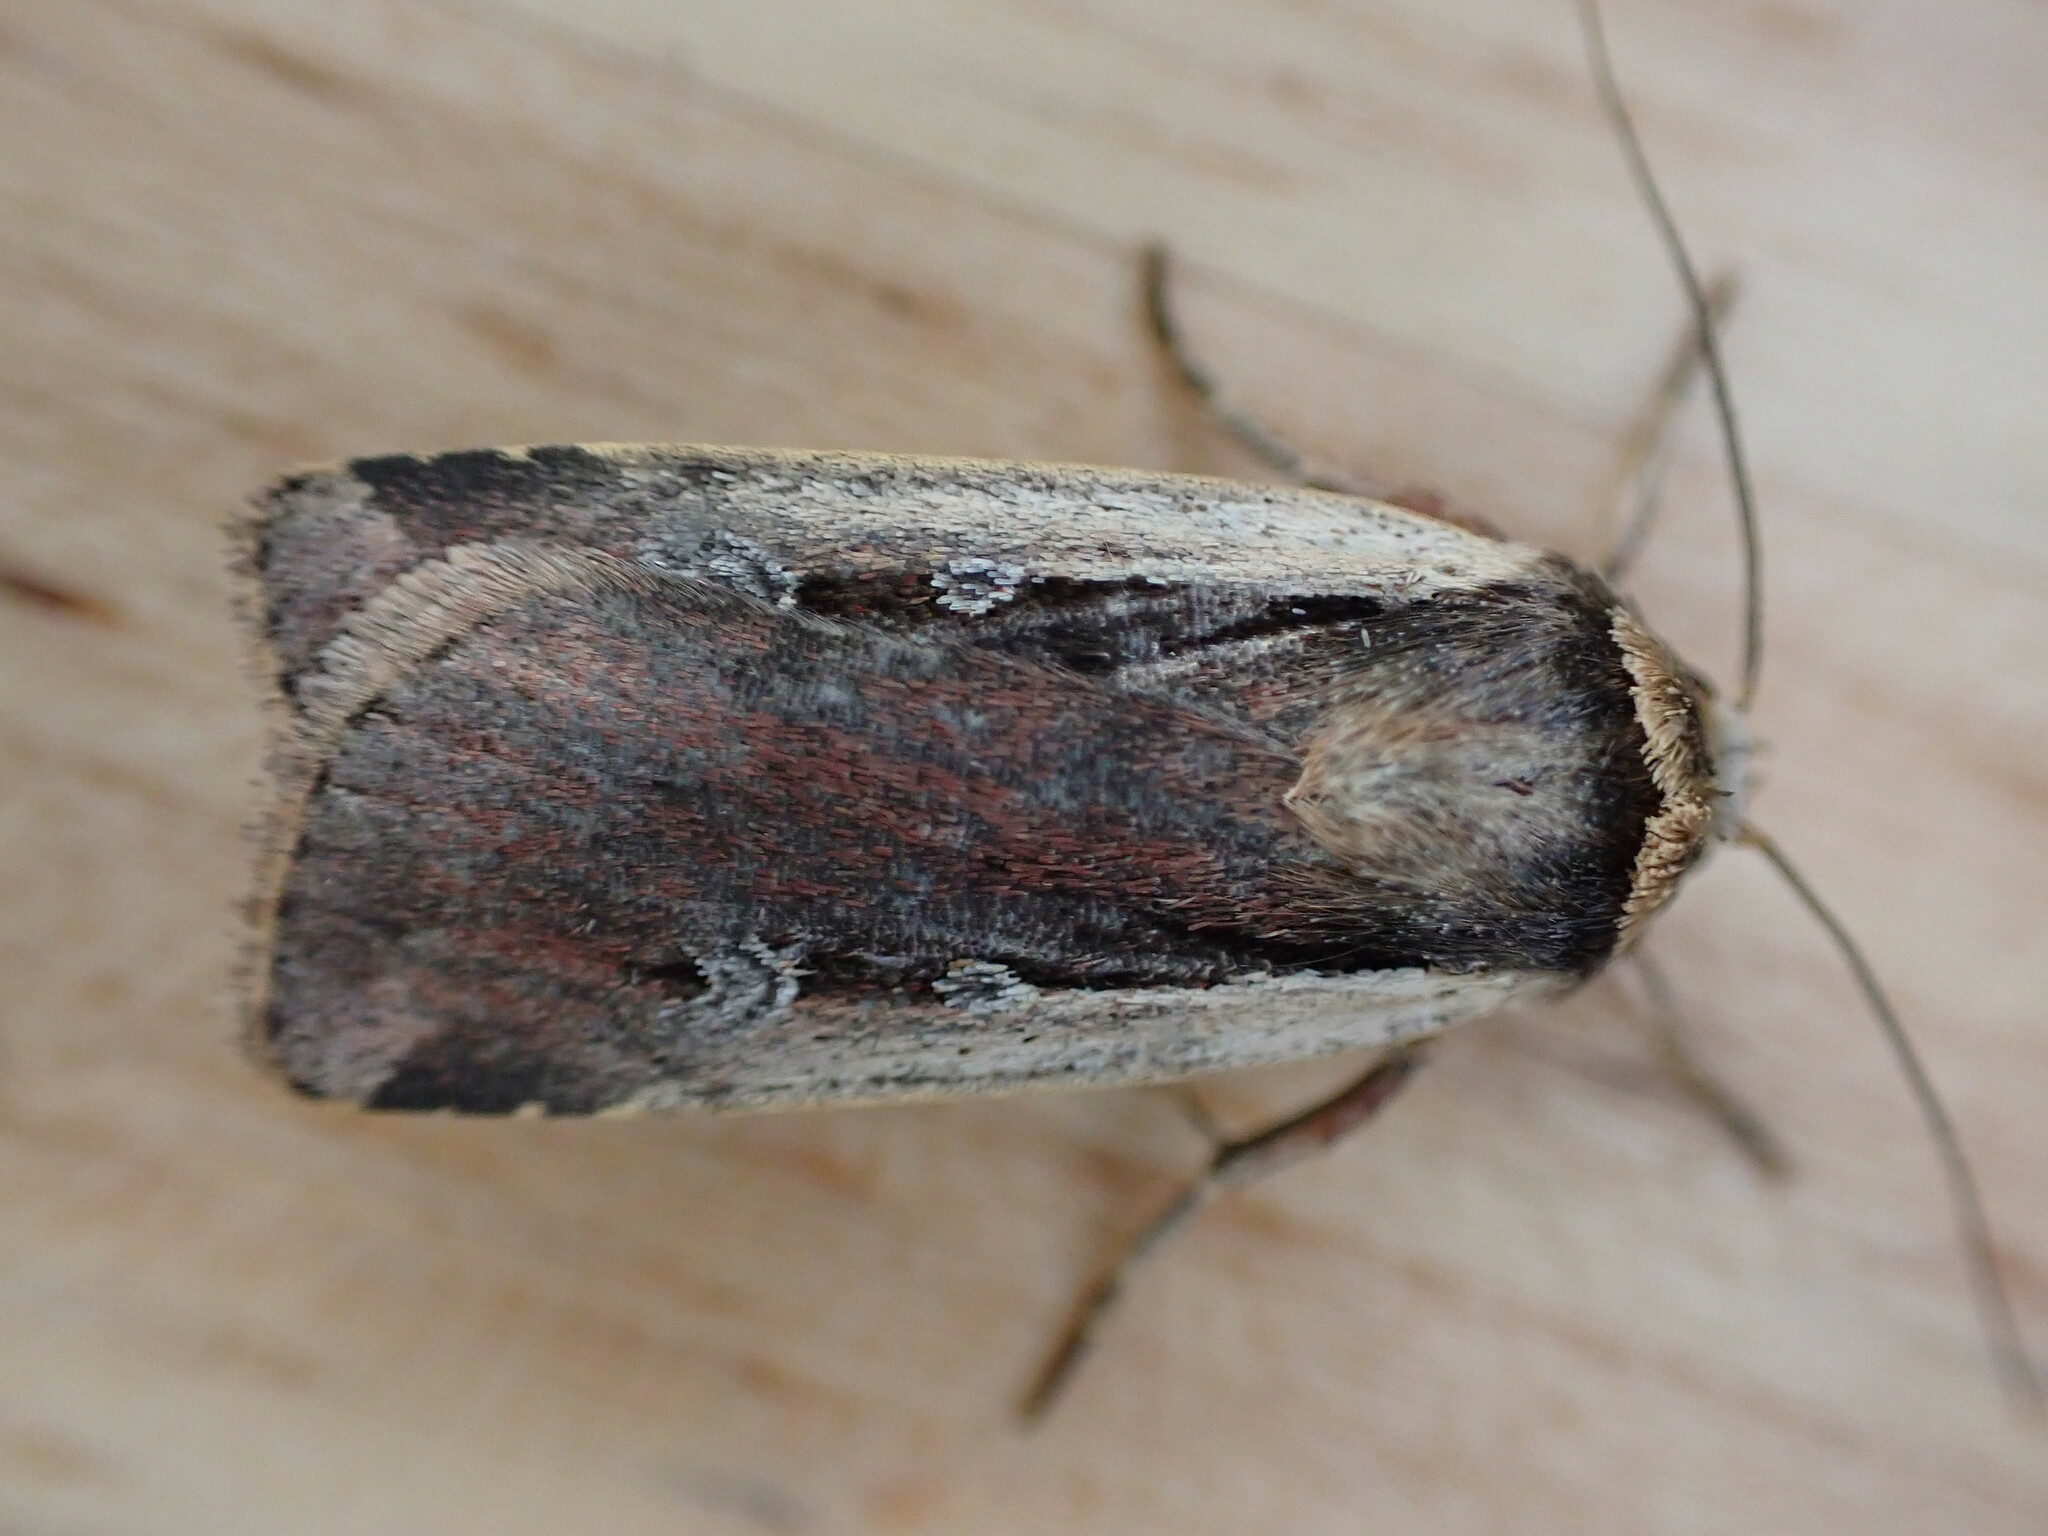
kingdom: Animalia
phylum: Arthropoda
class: Insecta
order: Lepidoptera
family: Noctuidae
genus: Ochropleura
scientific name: Ochropleura plecta
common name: Flame shoulder
